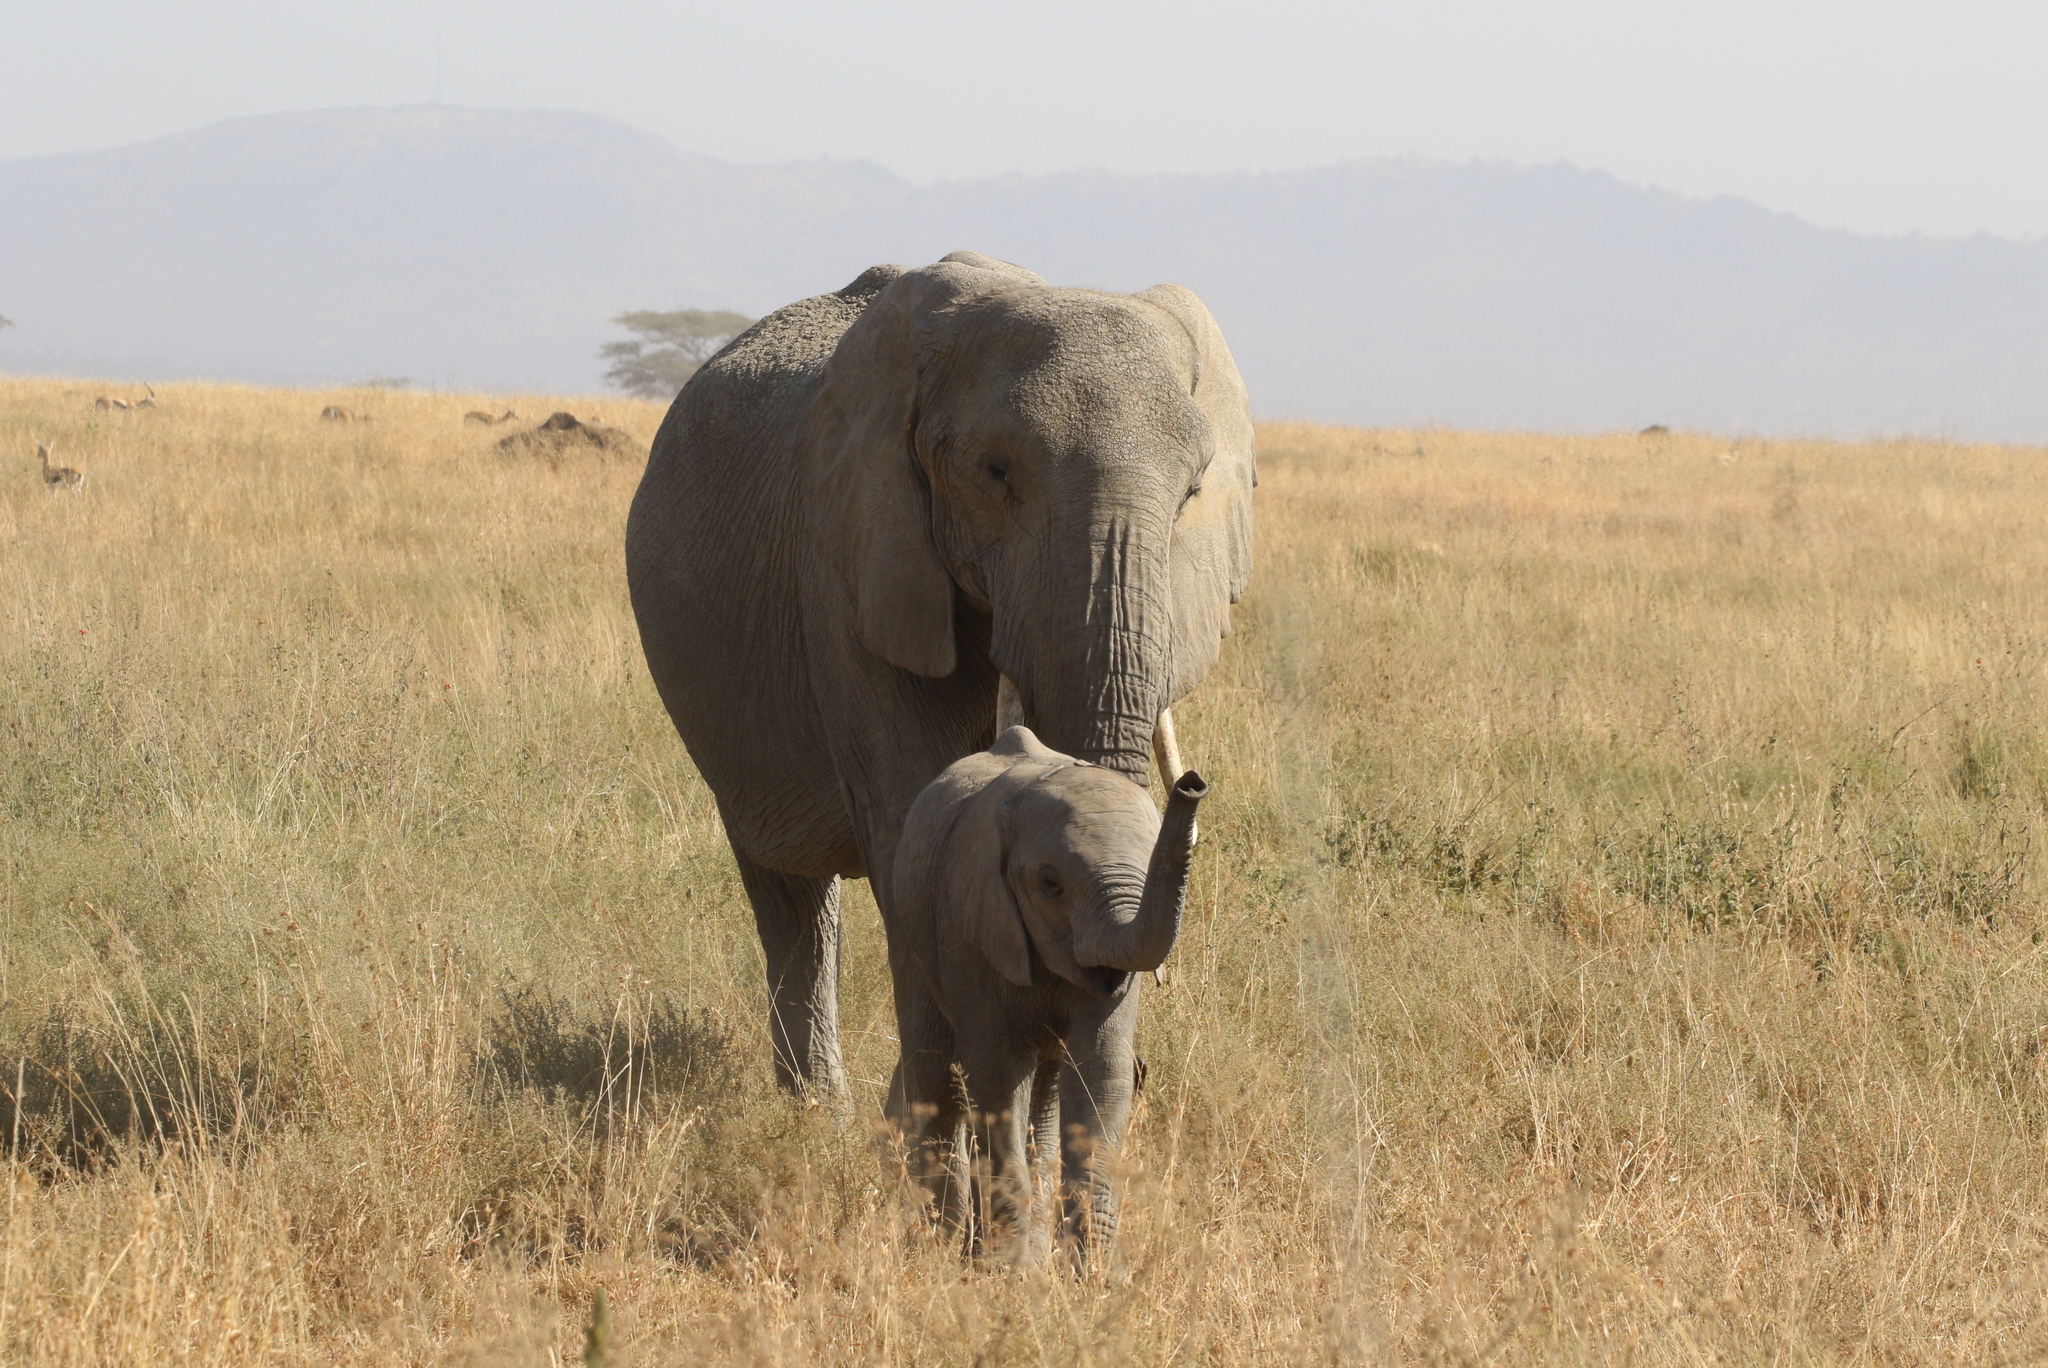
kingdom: Animalia
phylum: Chordata
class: Mammalia
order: Proboscidea
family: Elephantidae
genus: Loxodonta
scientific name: Loxodonta africana
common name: African elephant
